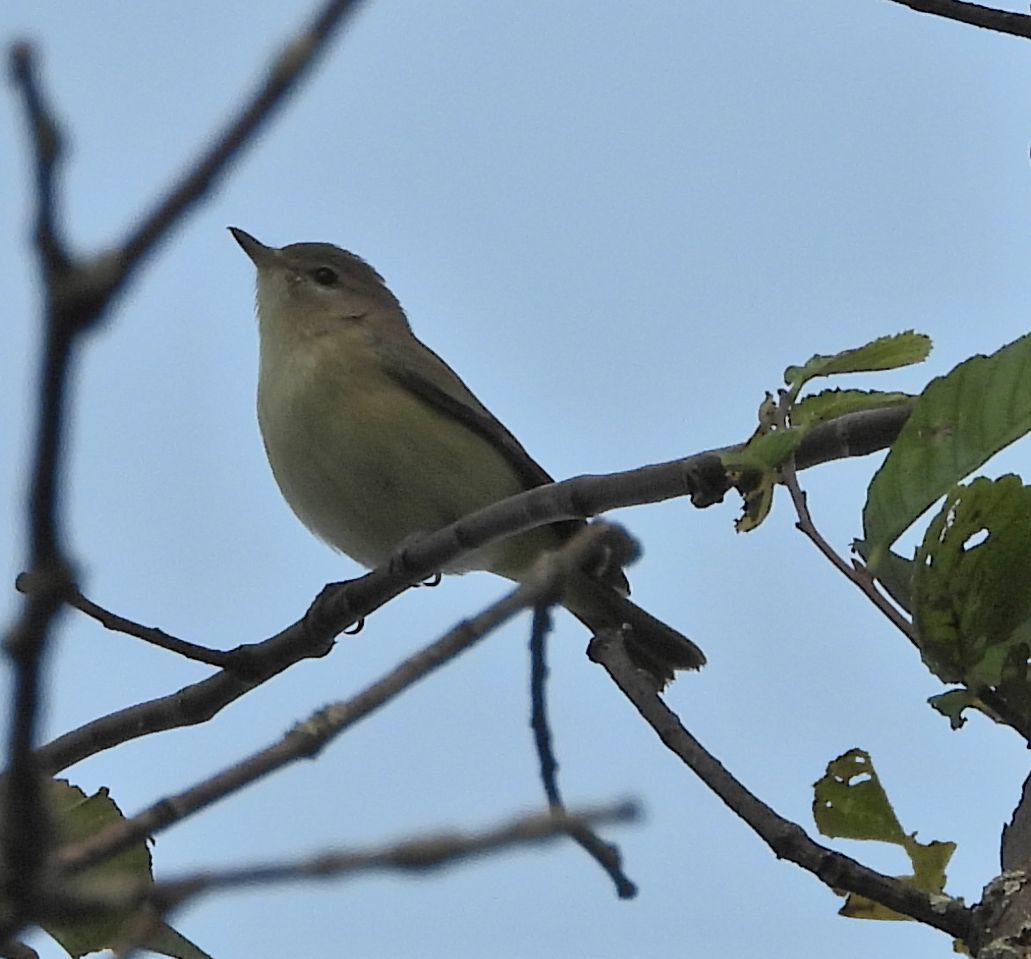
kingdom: Animalia
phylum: Chordata
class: Aves
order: Passeriformes
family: Vireonidae
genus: Vireo
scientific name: Vireo gilvus
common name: Warbling vireo
